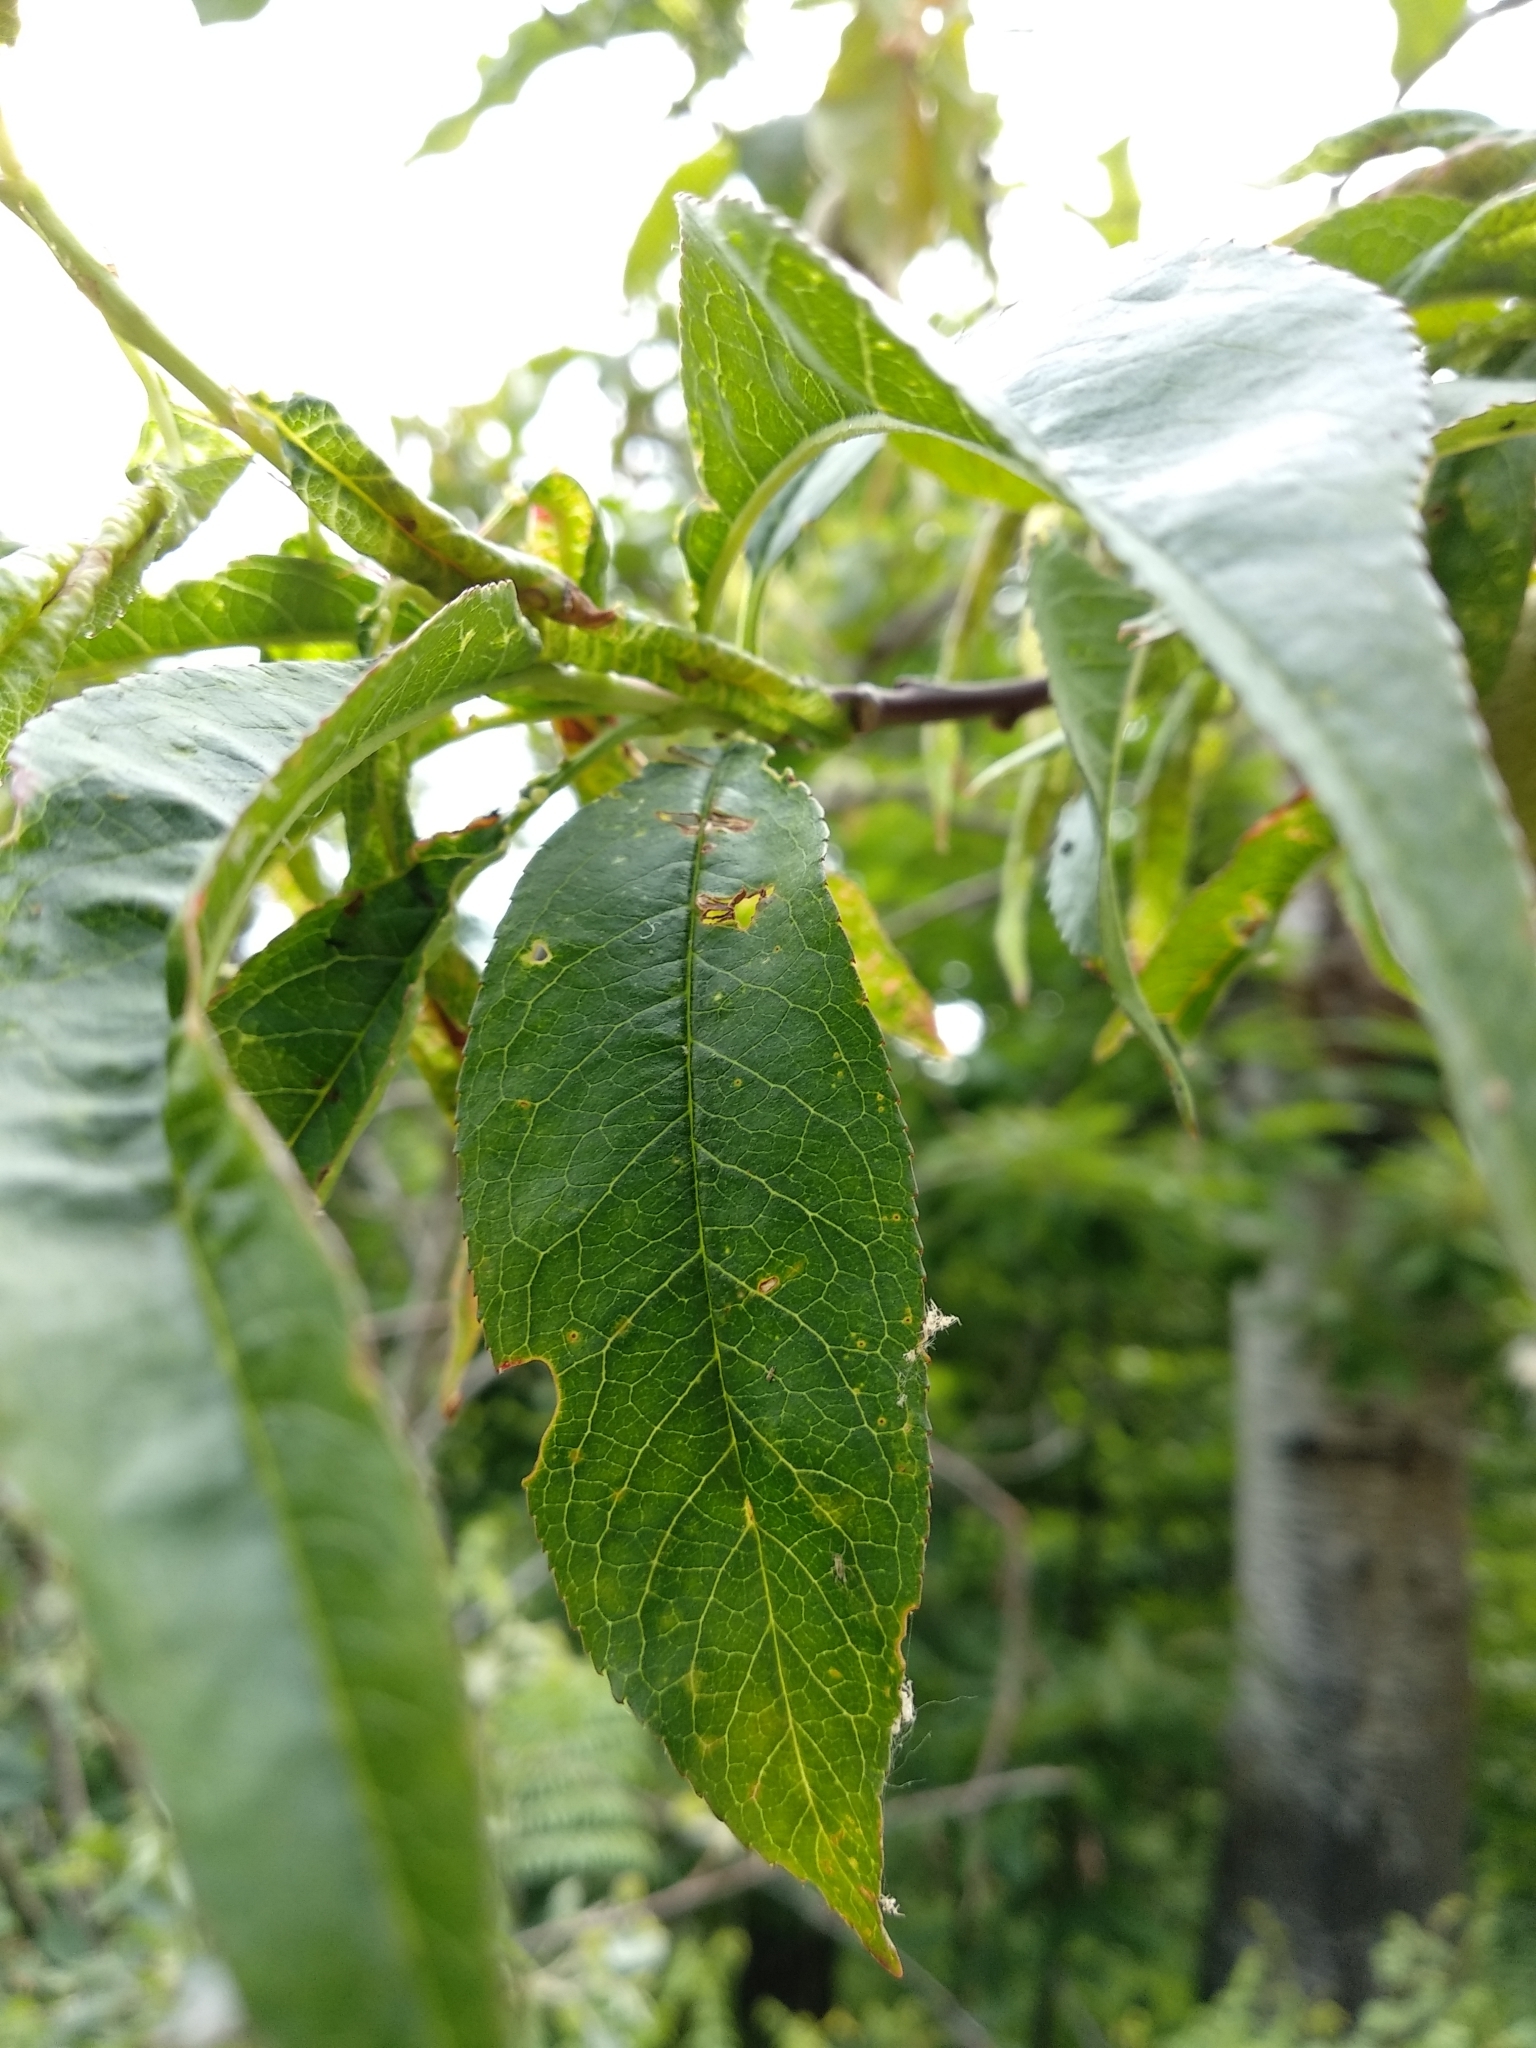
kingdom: Plantae
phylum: Tracheophyta
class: Magnoliopsida
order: Rosales
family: Rosaceae
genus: Prunus
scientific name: Prunus persica
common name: Peach
